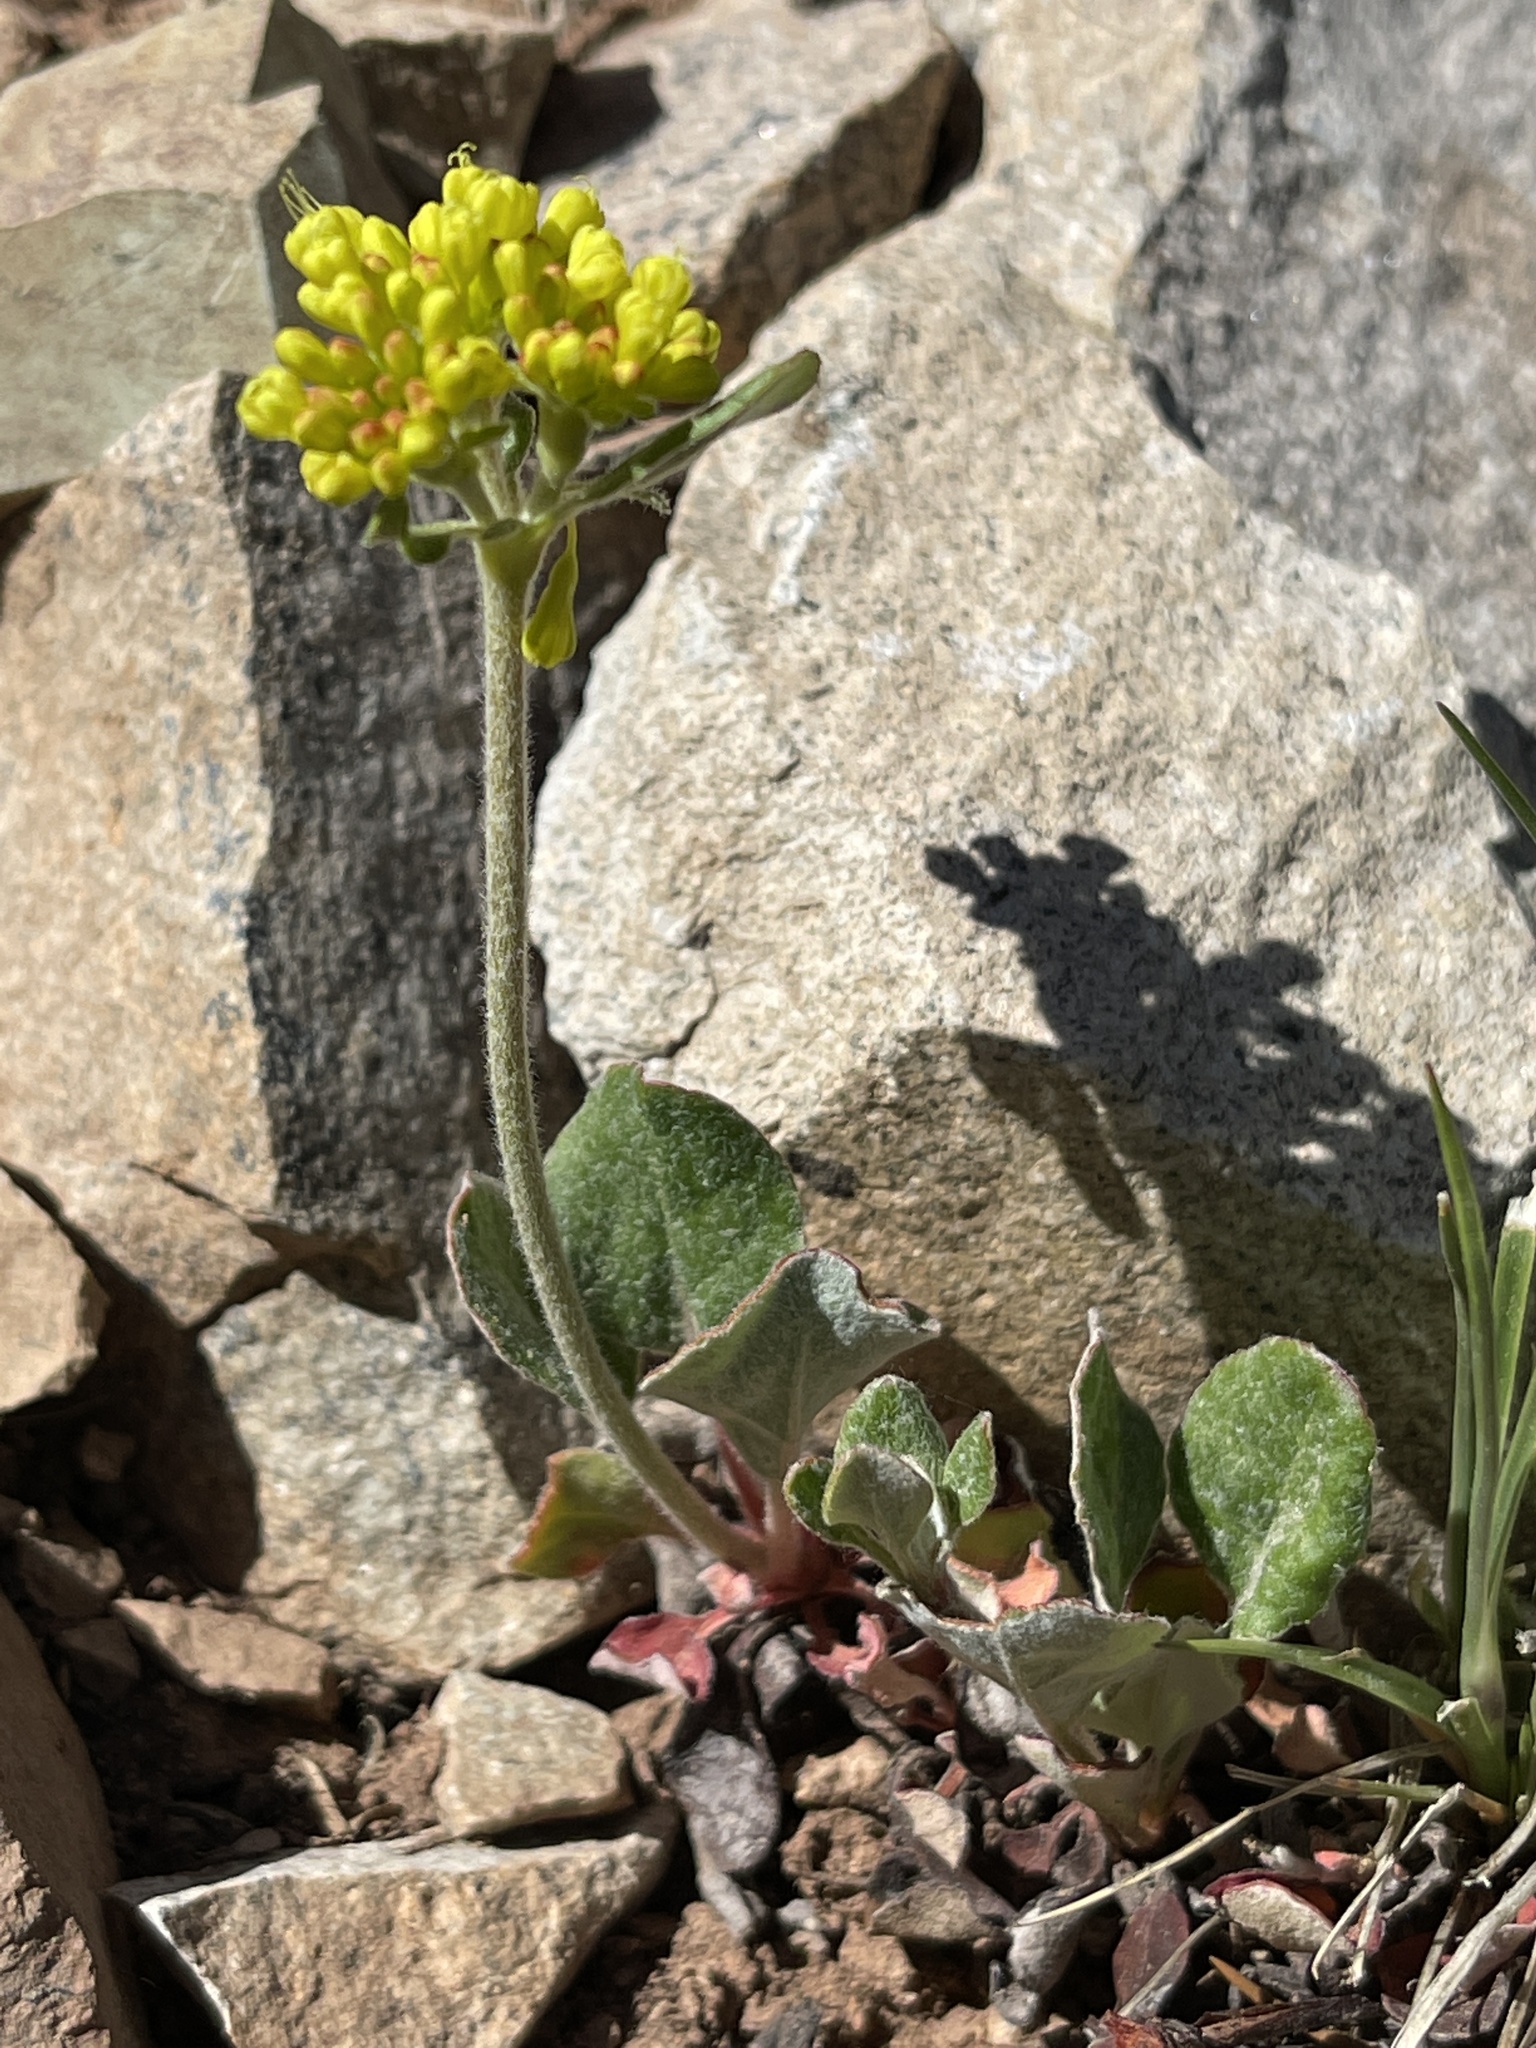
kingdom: Plantae
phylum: Tracheophyta
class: Magnoliopsida
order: Caryophyllales
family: Polygonaceae
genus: Eriogonum
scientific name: Eriogonum umbellatum
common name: Sulfur-buckwheat
